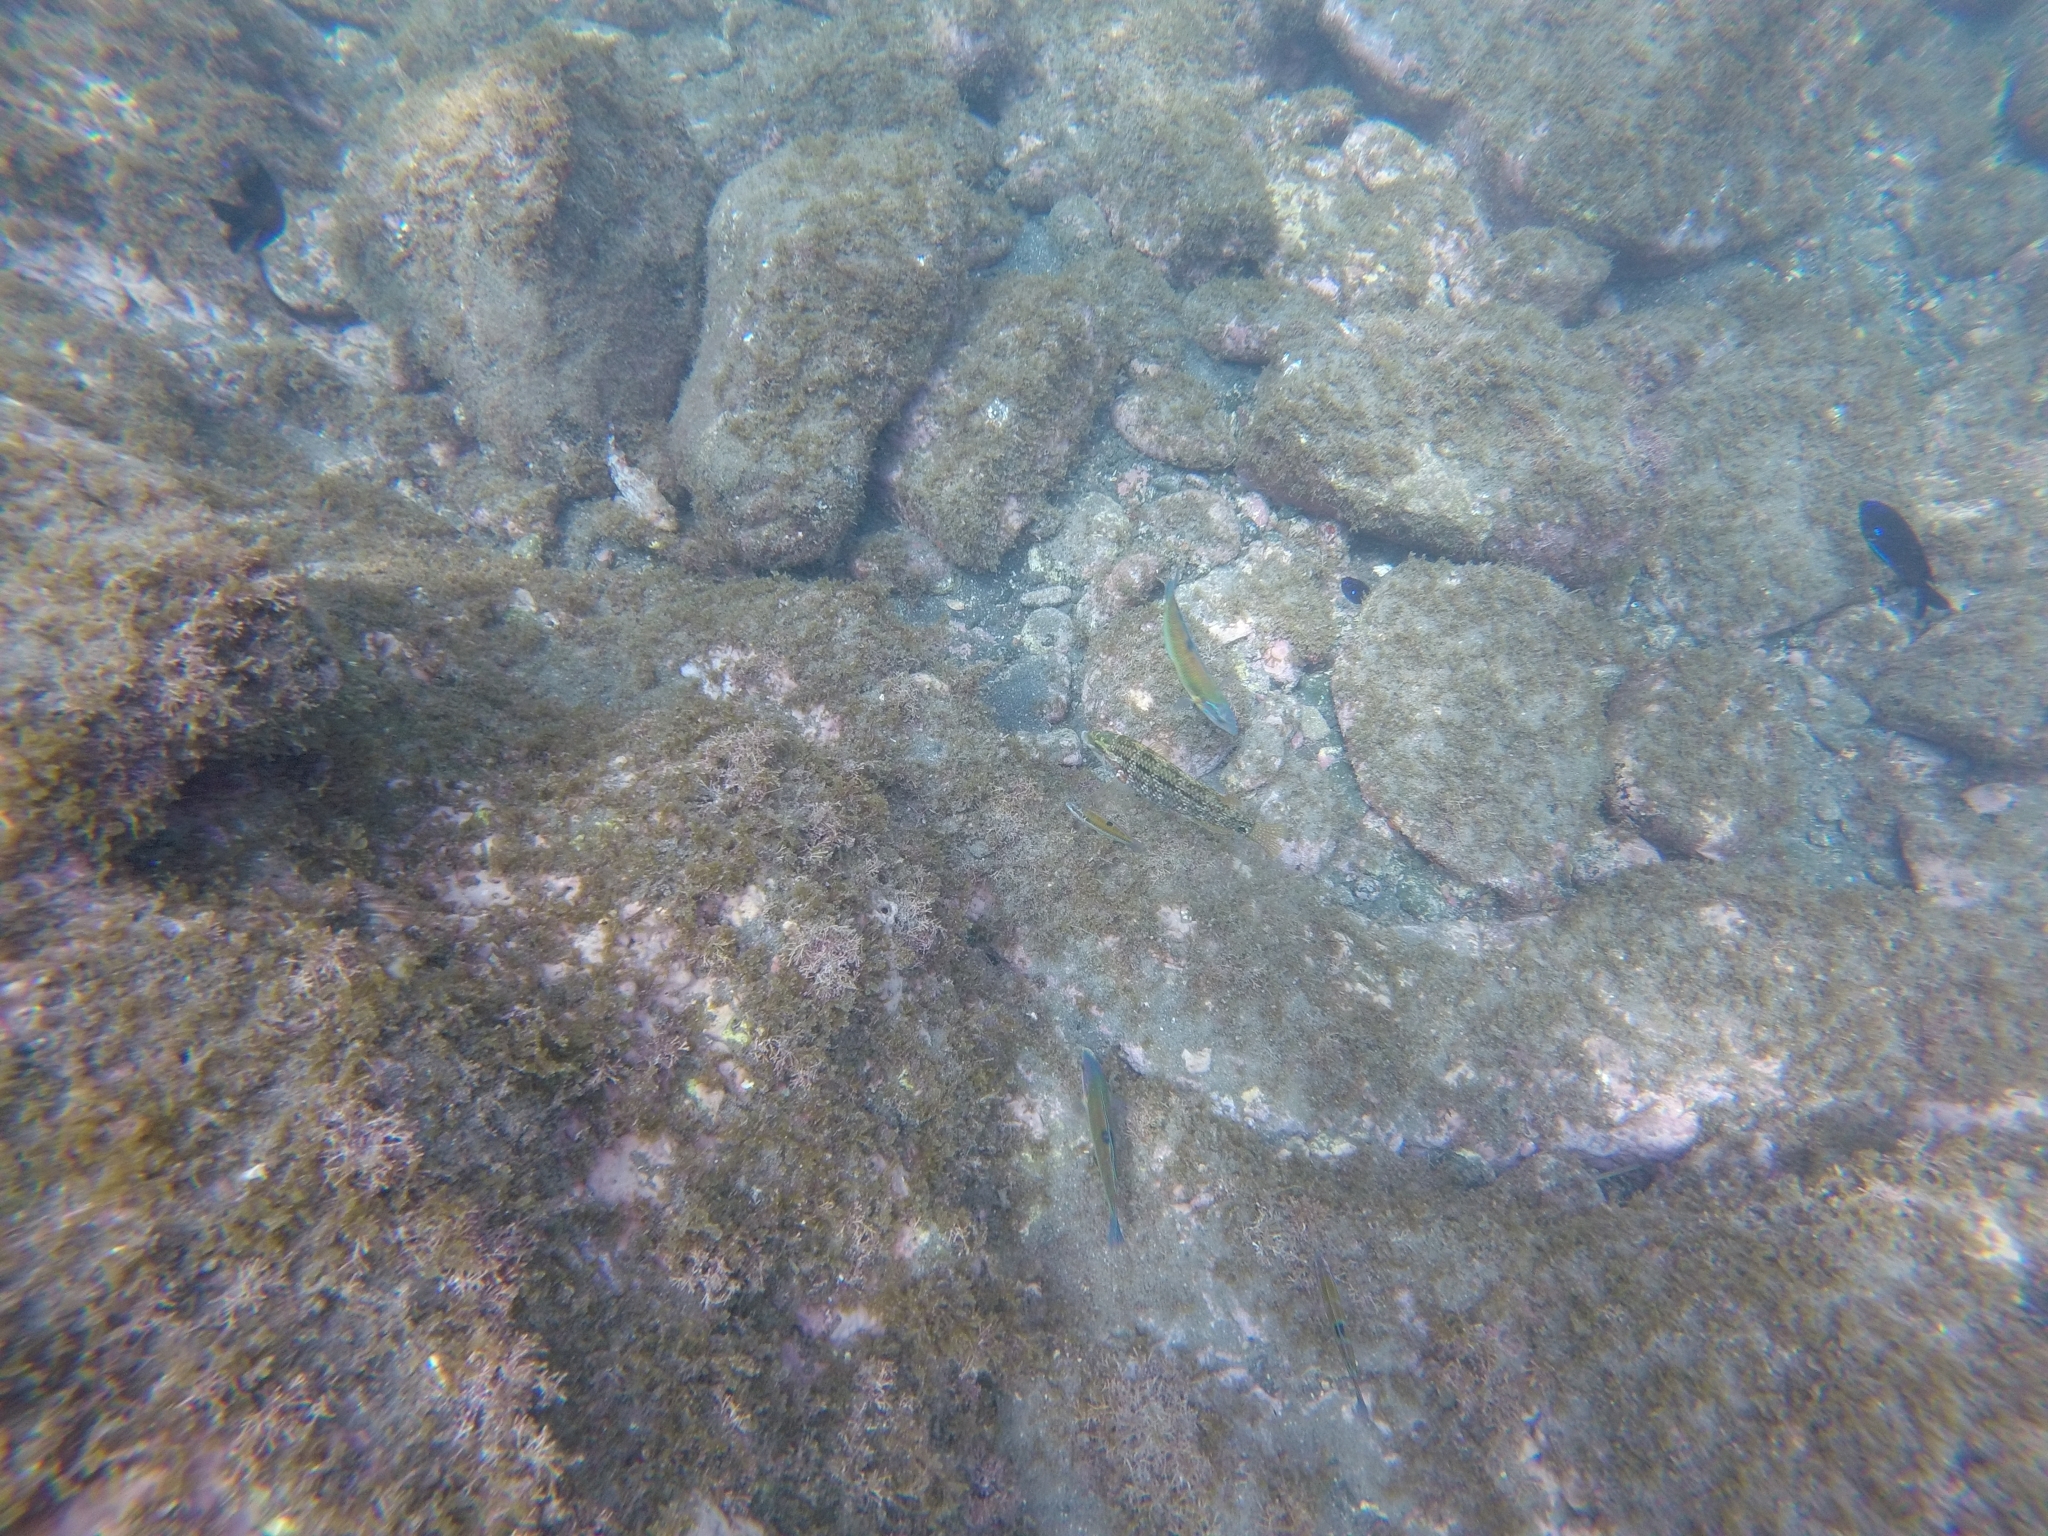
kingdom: Animalia
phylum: Chordata
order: Perciformes
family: Labridae
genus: Symphodus
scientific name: Symphodus trutta
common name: Emerald wrasse
